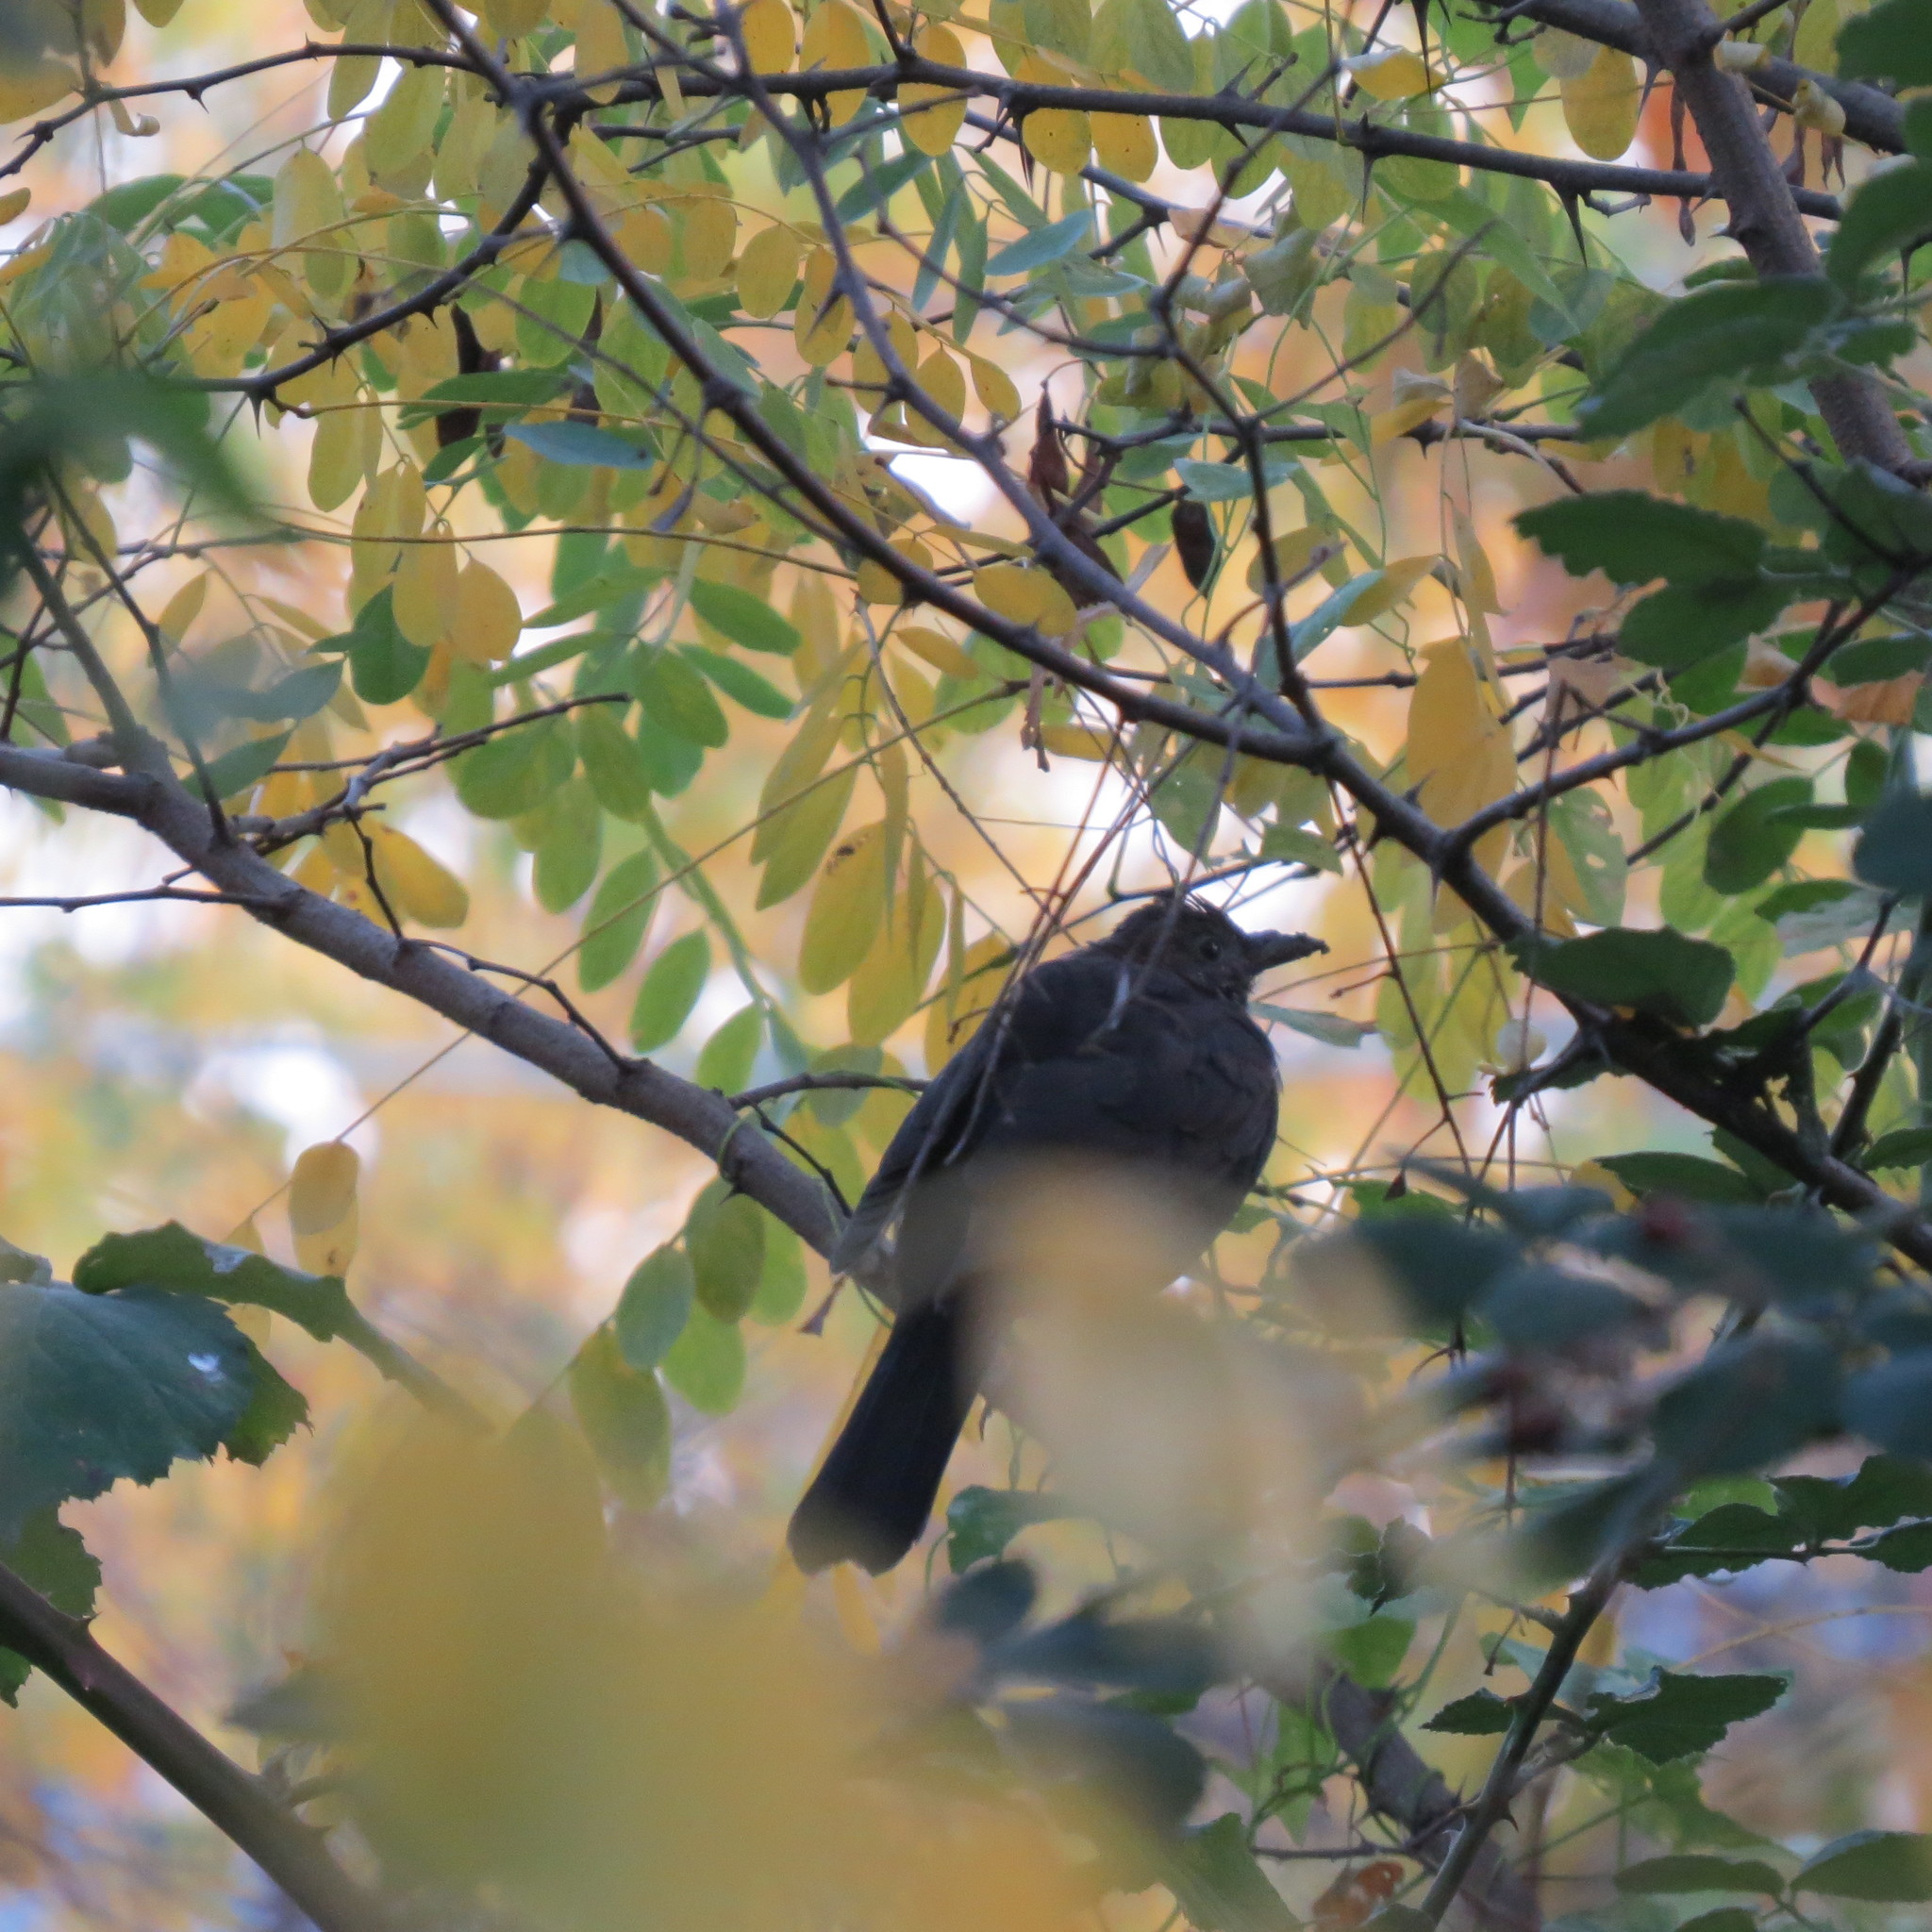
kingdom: Animalia
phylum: Chordata
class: Aves
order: Passeriformes
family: Turdidae
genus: Turdus
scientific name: Turdus merula
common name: Common blackbird
